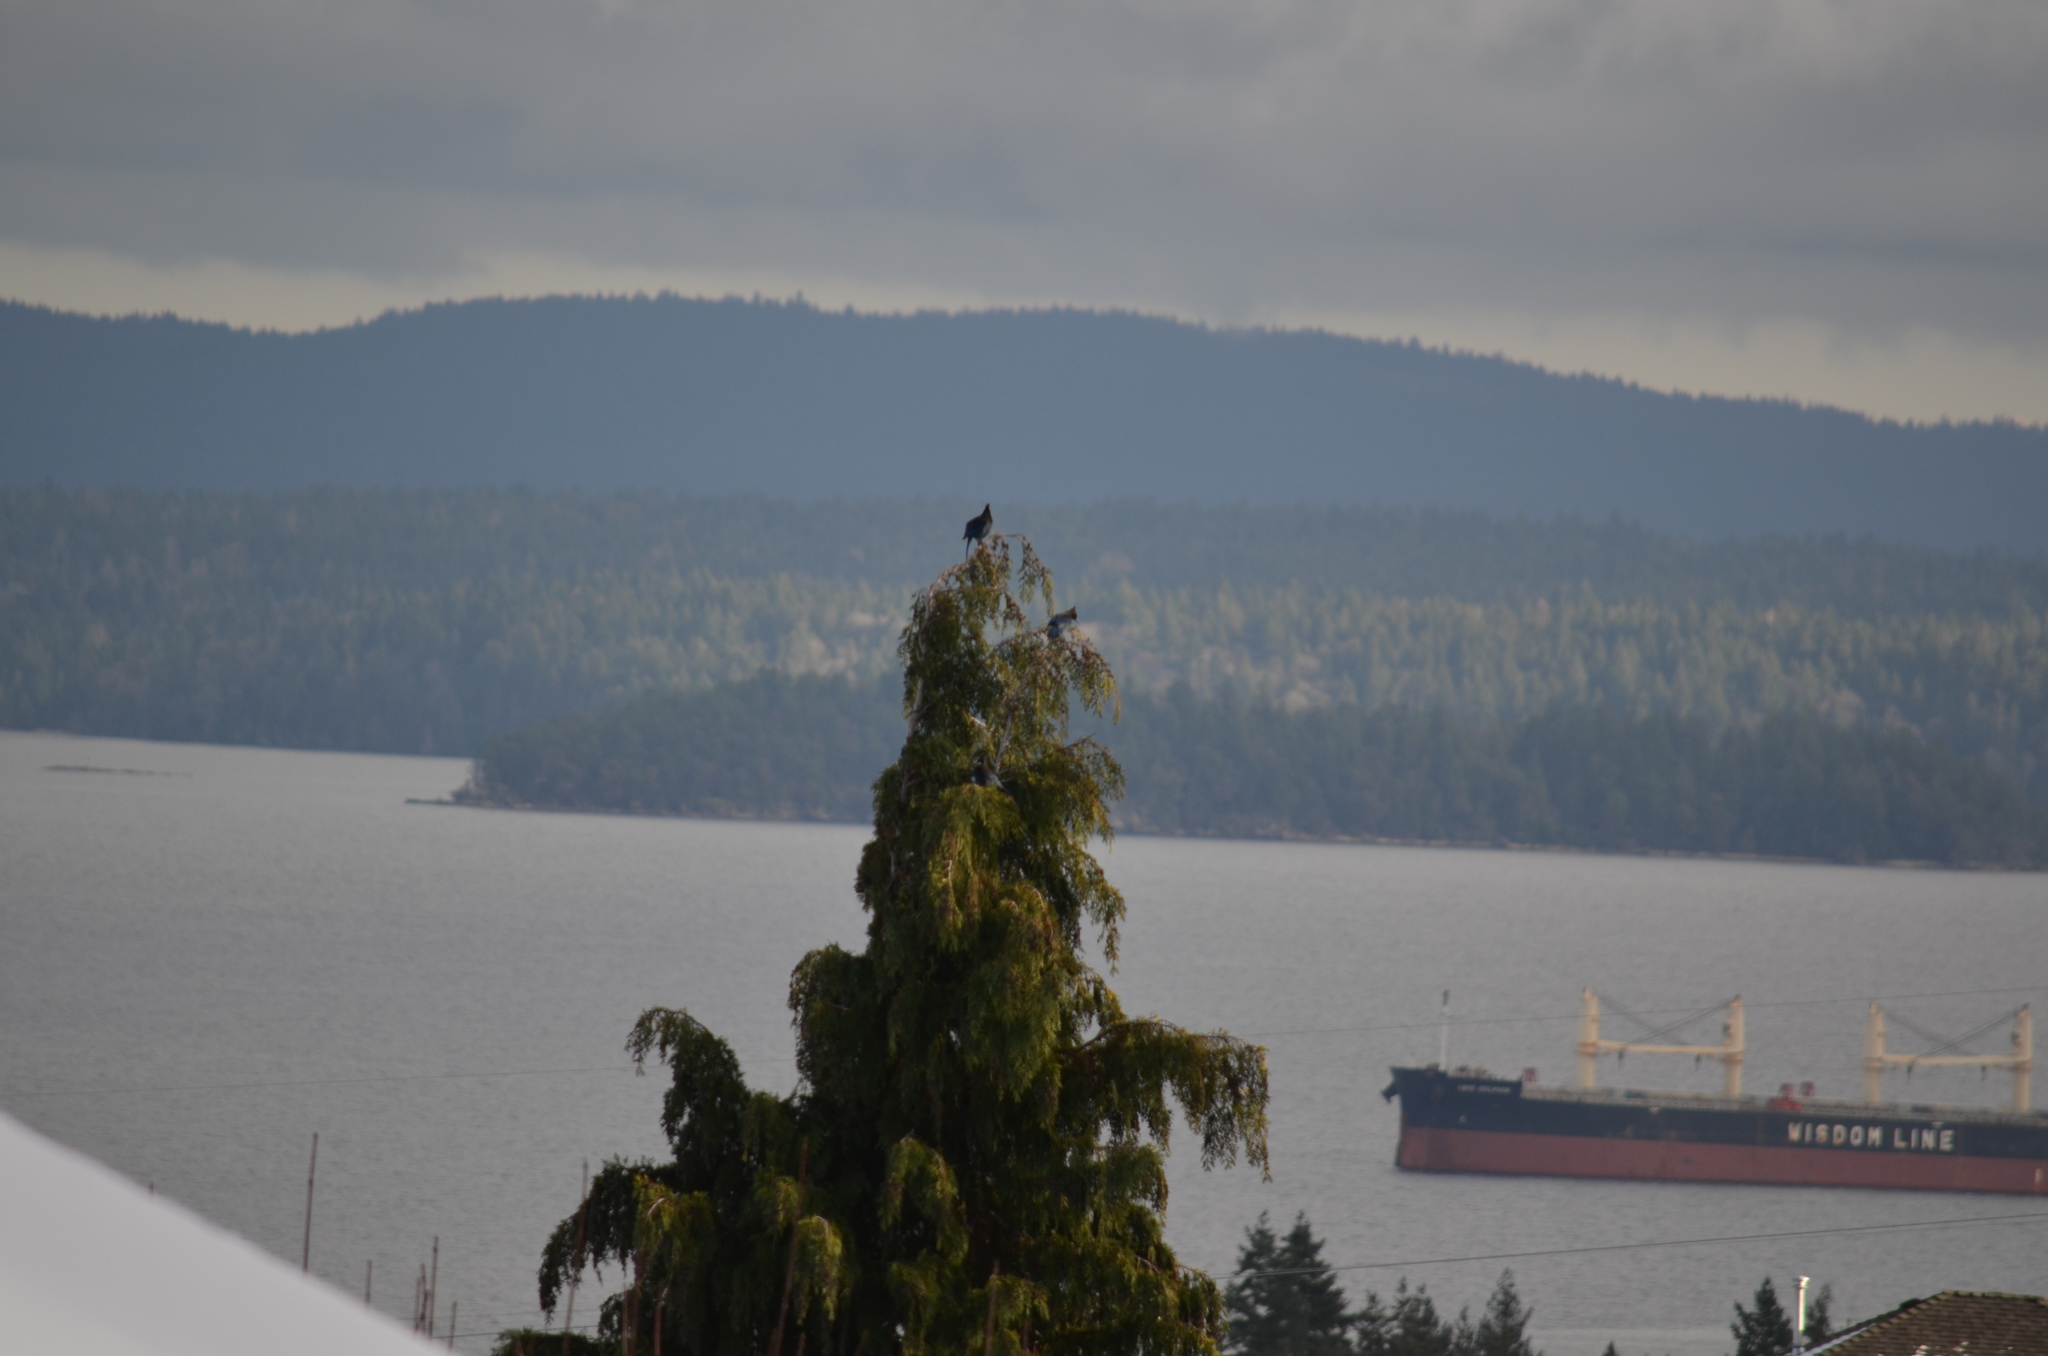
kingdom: Animalia
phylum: Chordata
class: Aves
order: Passeriformes
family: Corvidae
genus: Cyanocitta
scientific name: Cyanocitta stelleri
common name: Steller's jay
